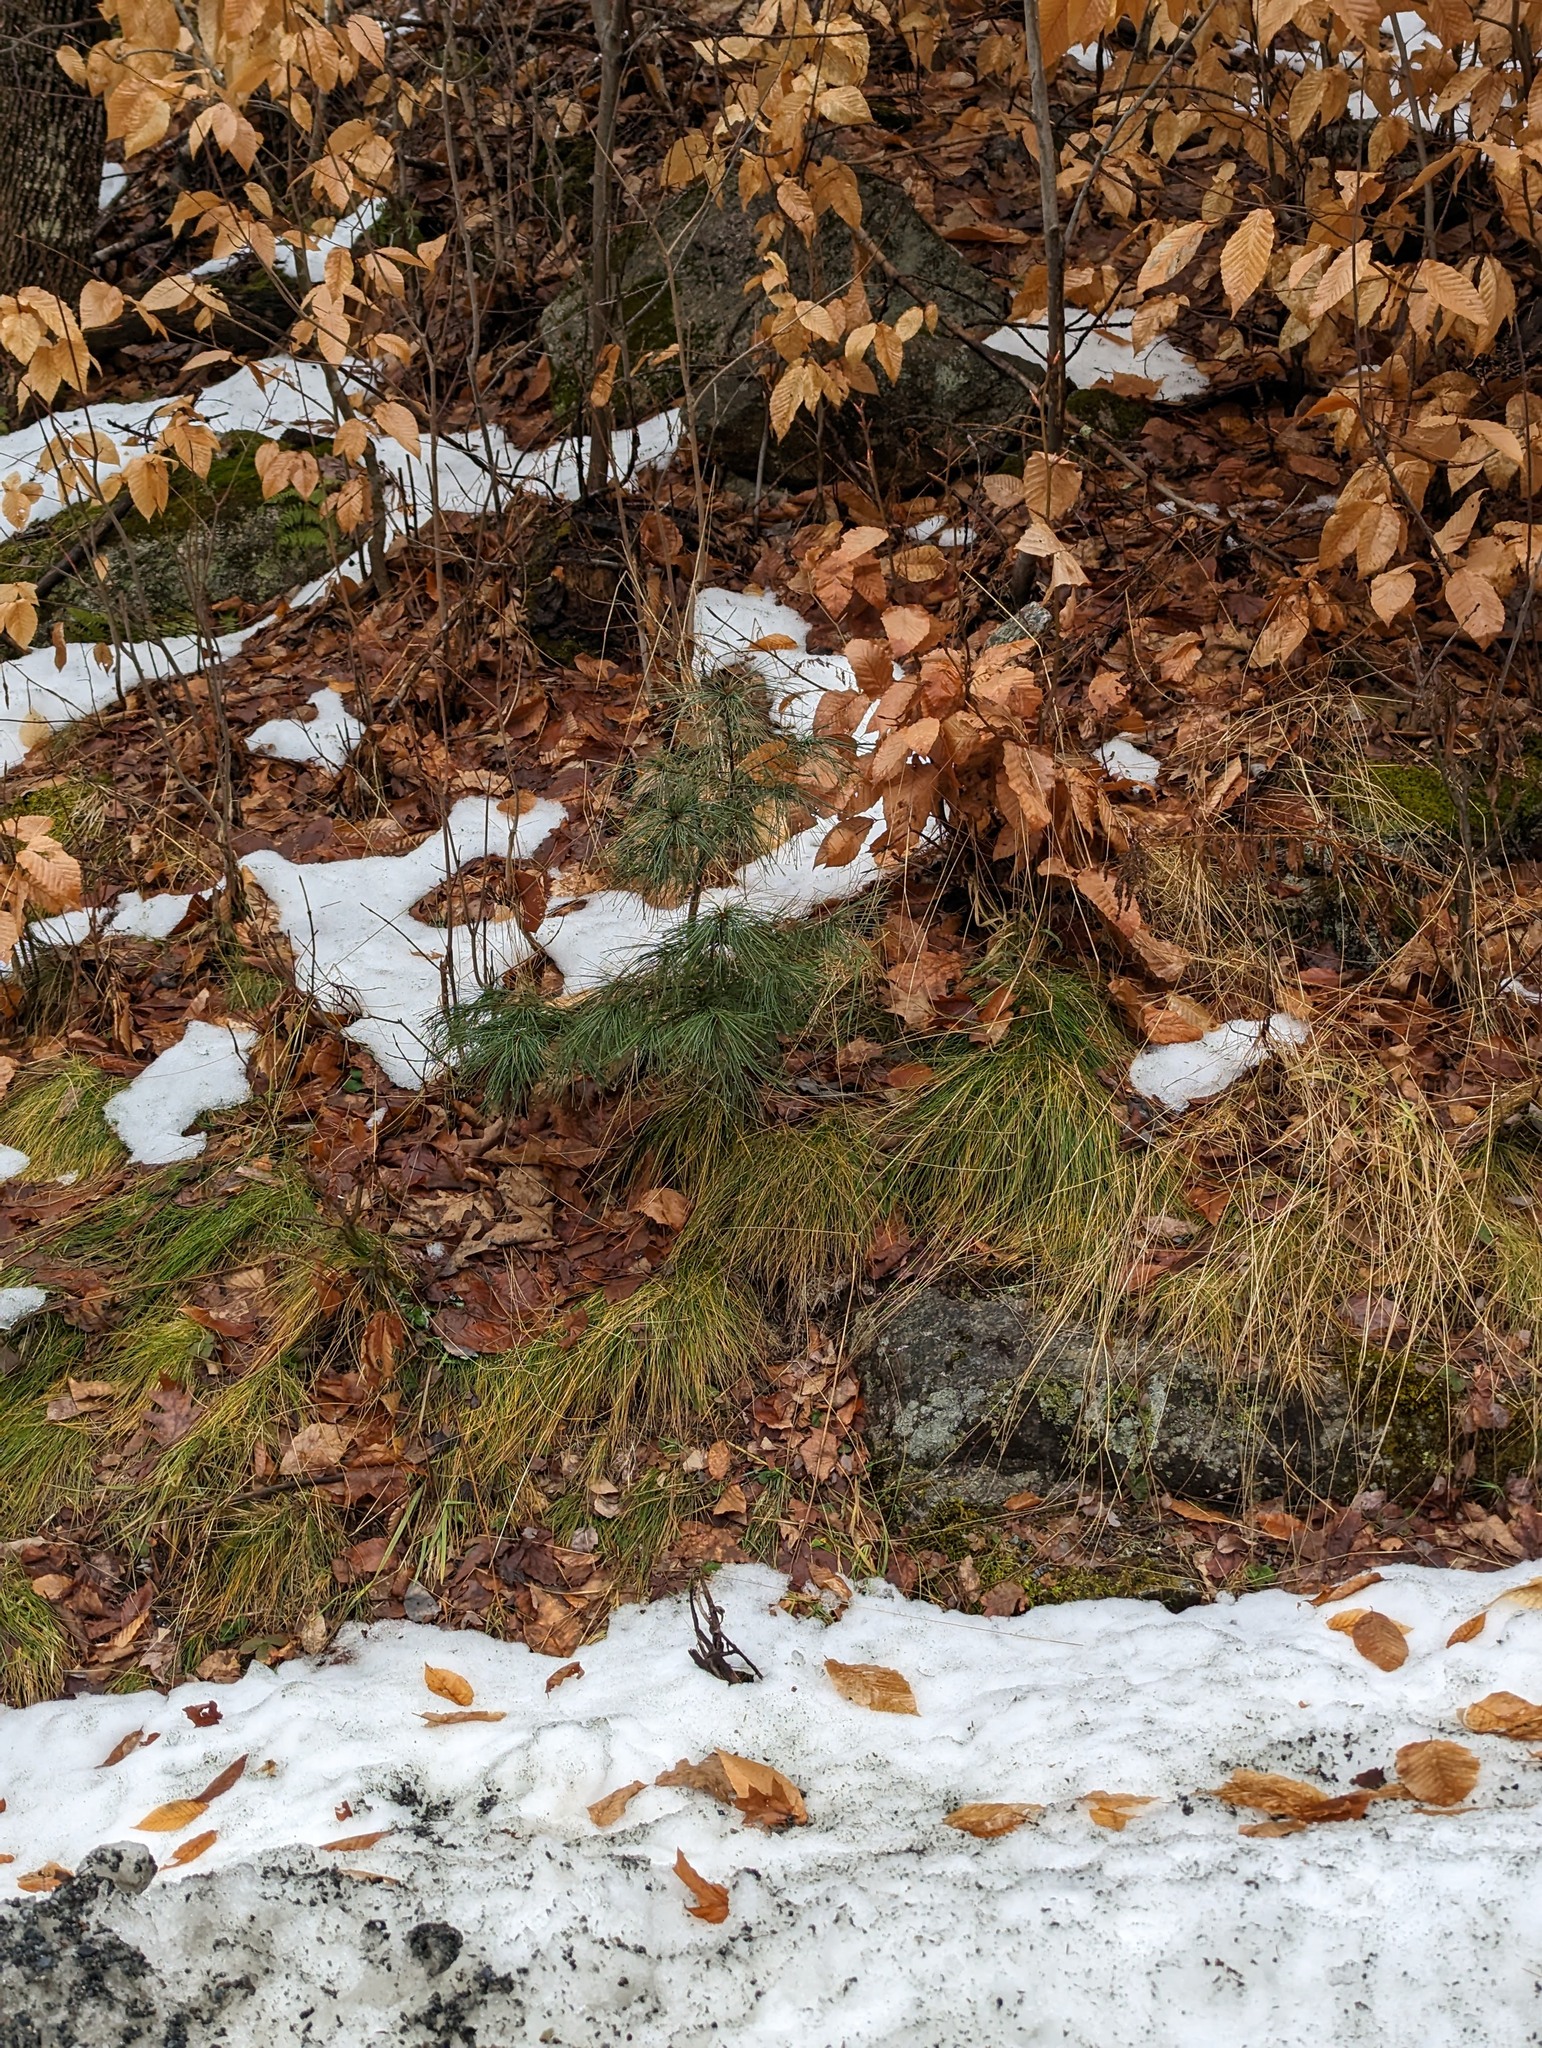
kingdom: Plantae
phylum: Tracheophyta
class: Pinopsida
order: Pinales
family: Pinaceae
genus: Pinus
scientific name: Pinus strobus
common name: Weymouth pine
